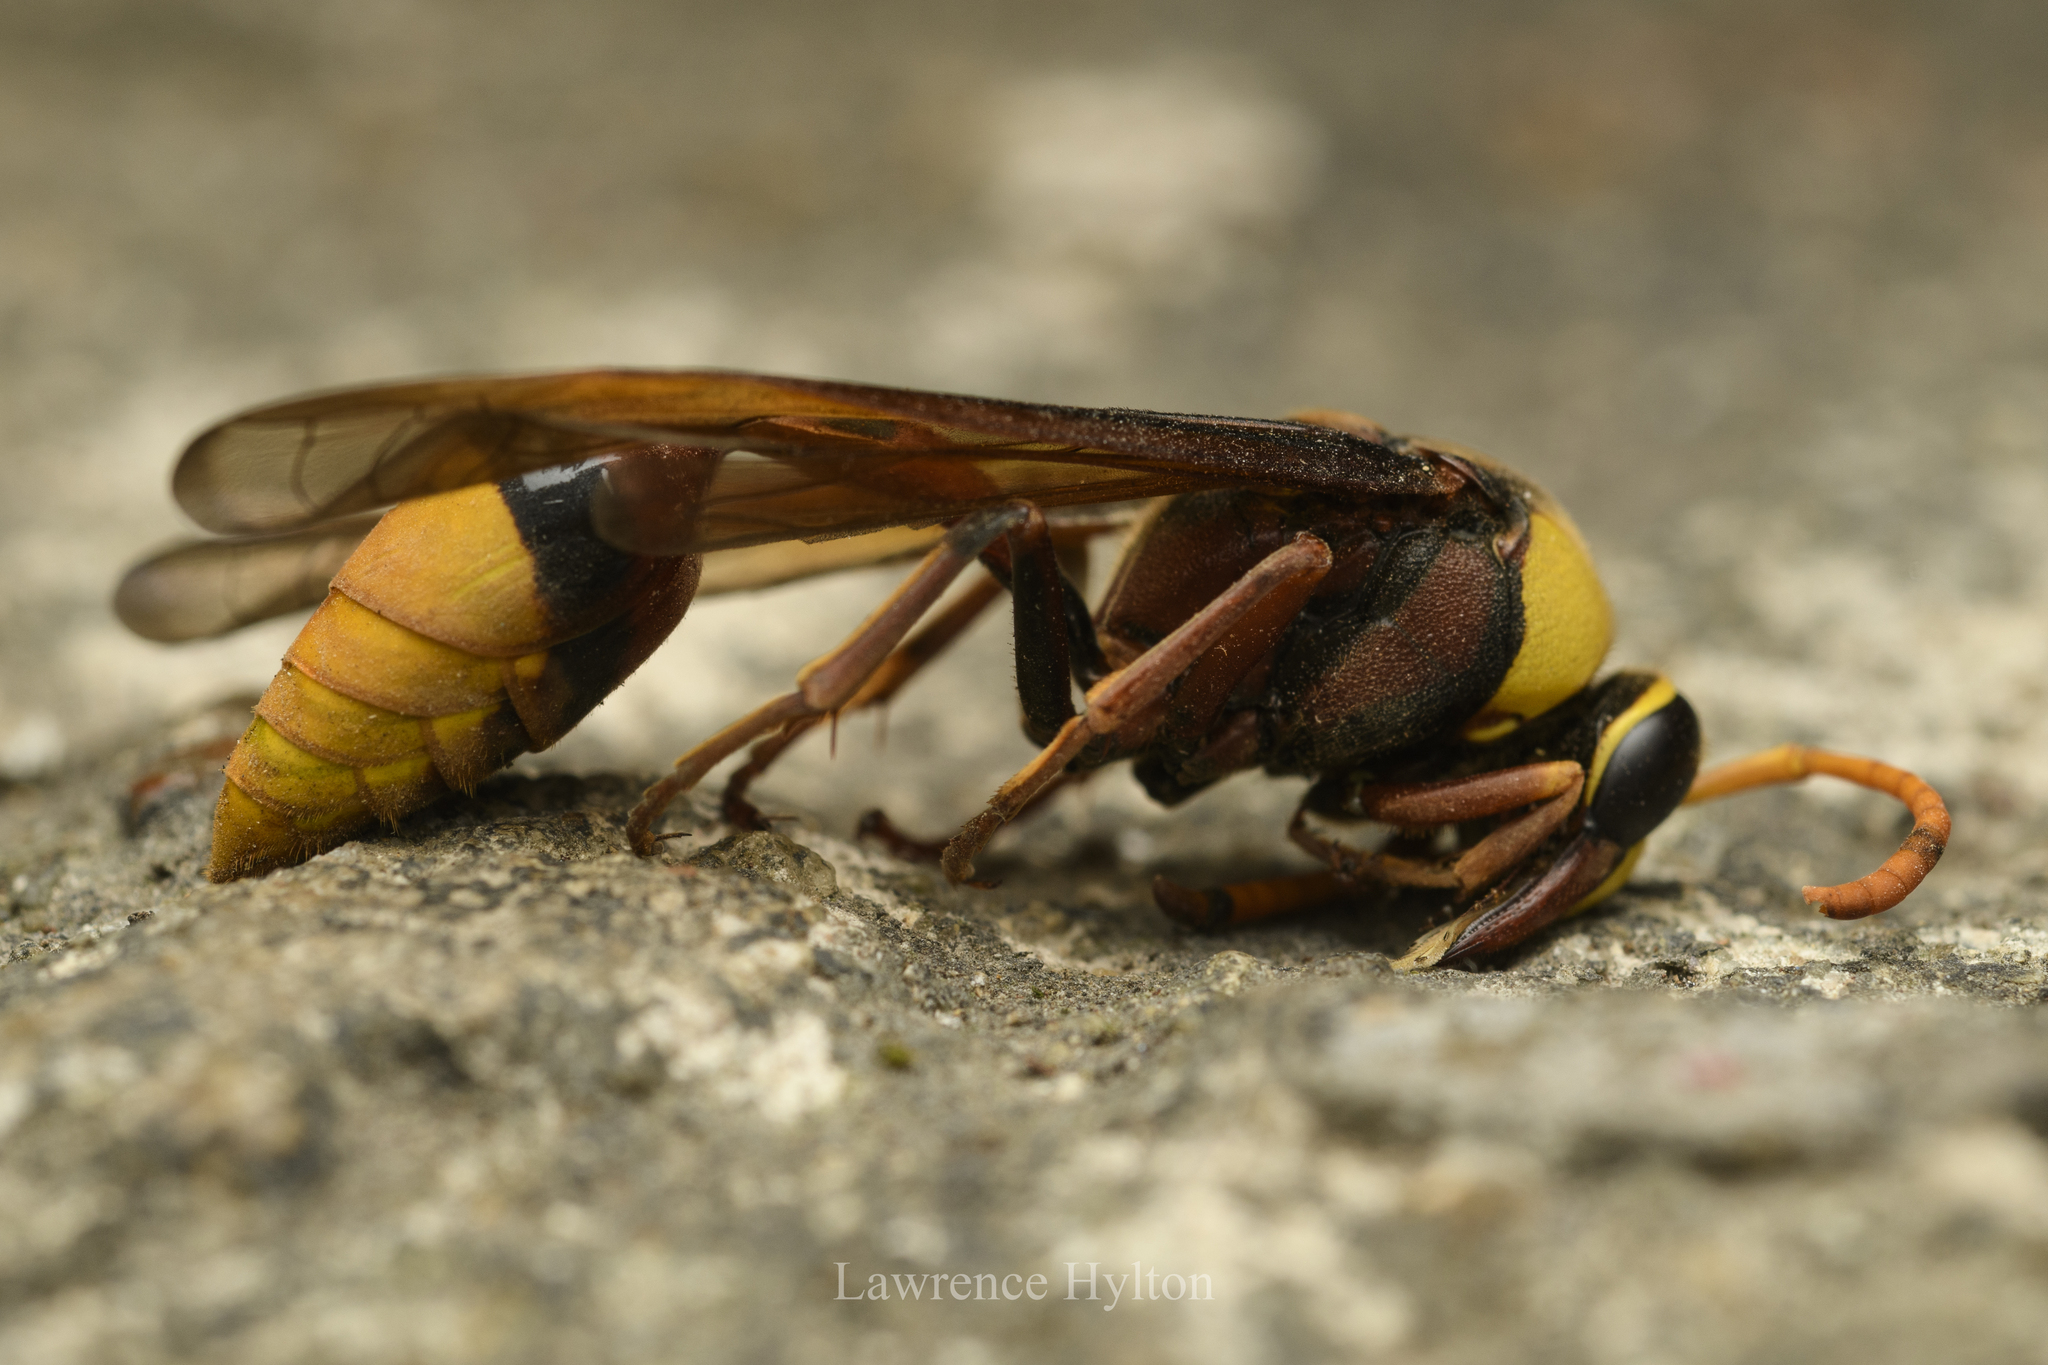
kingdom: Animalia
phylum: Arthropoda
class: Insecta
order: Hymenoptera
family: Eumenidae
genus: Delta
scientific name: Delta pyriforme
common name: Wasp
